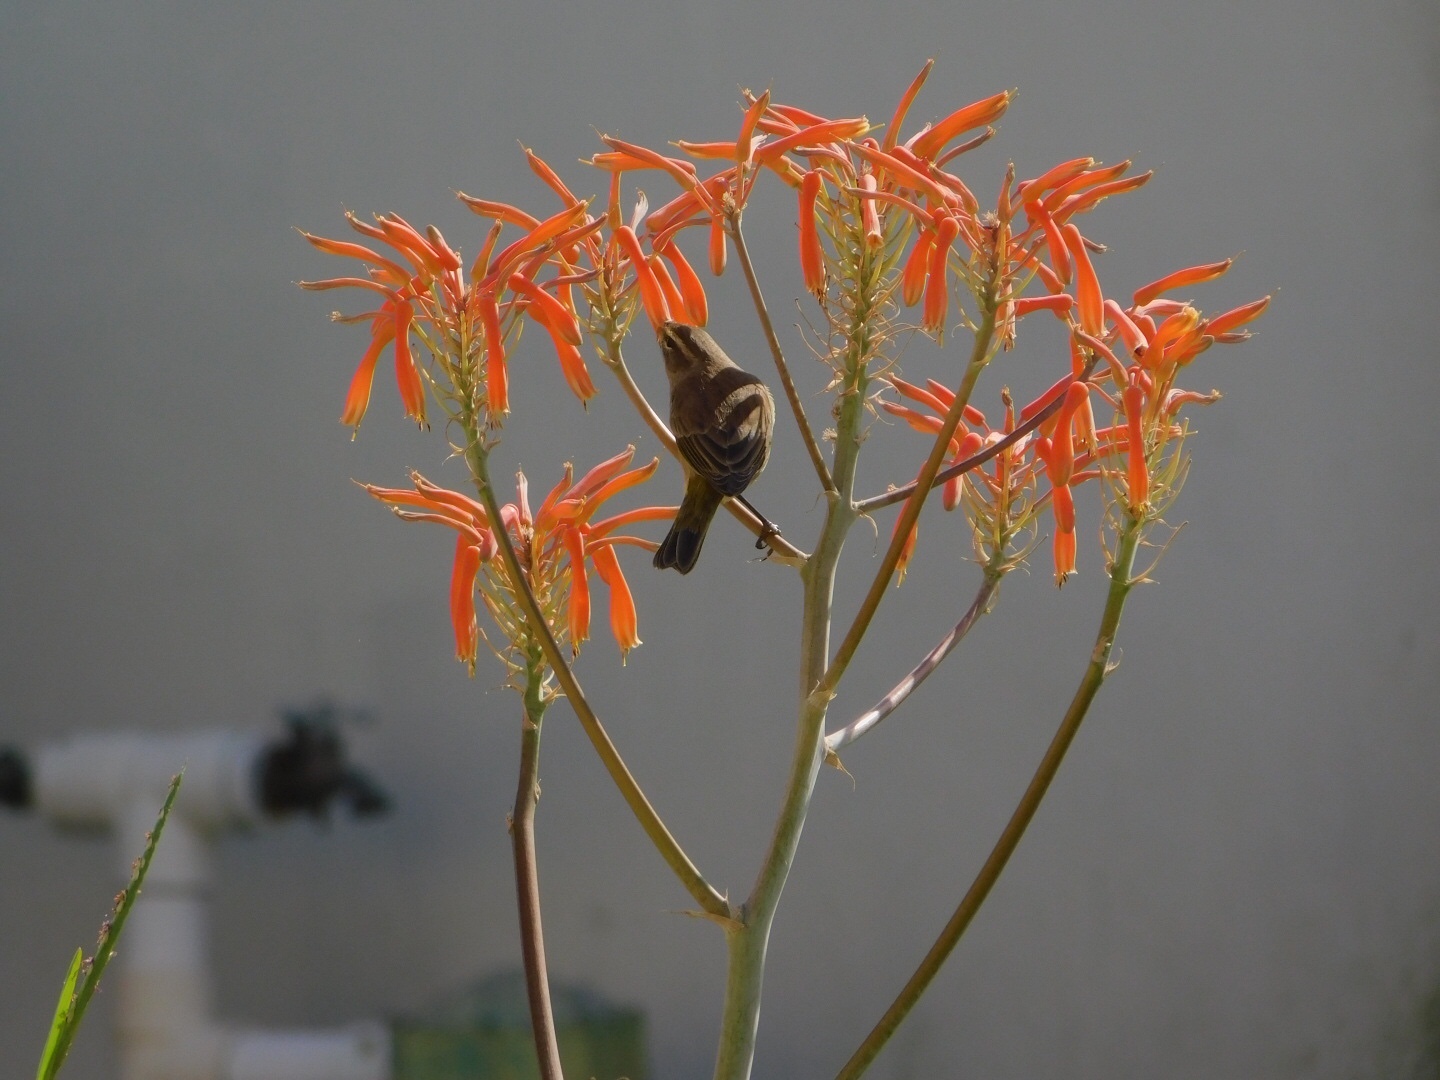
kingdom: Animalia
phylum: Chordata
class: Aves
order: Passeriformes
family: Parulidae
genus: Setophaga
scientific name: Setophaga palmarum
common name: Palm warbler
